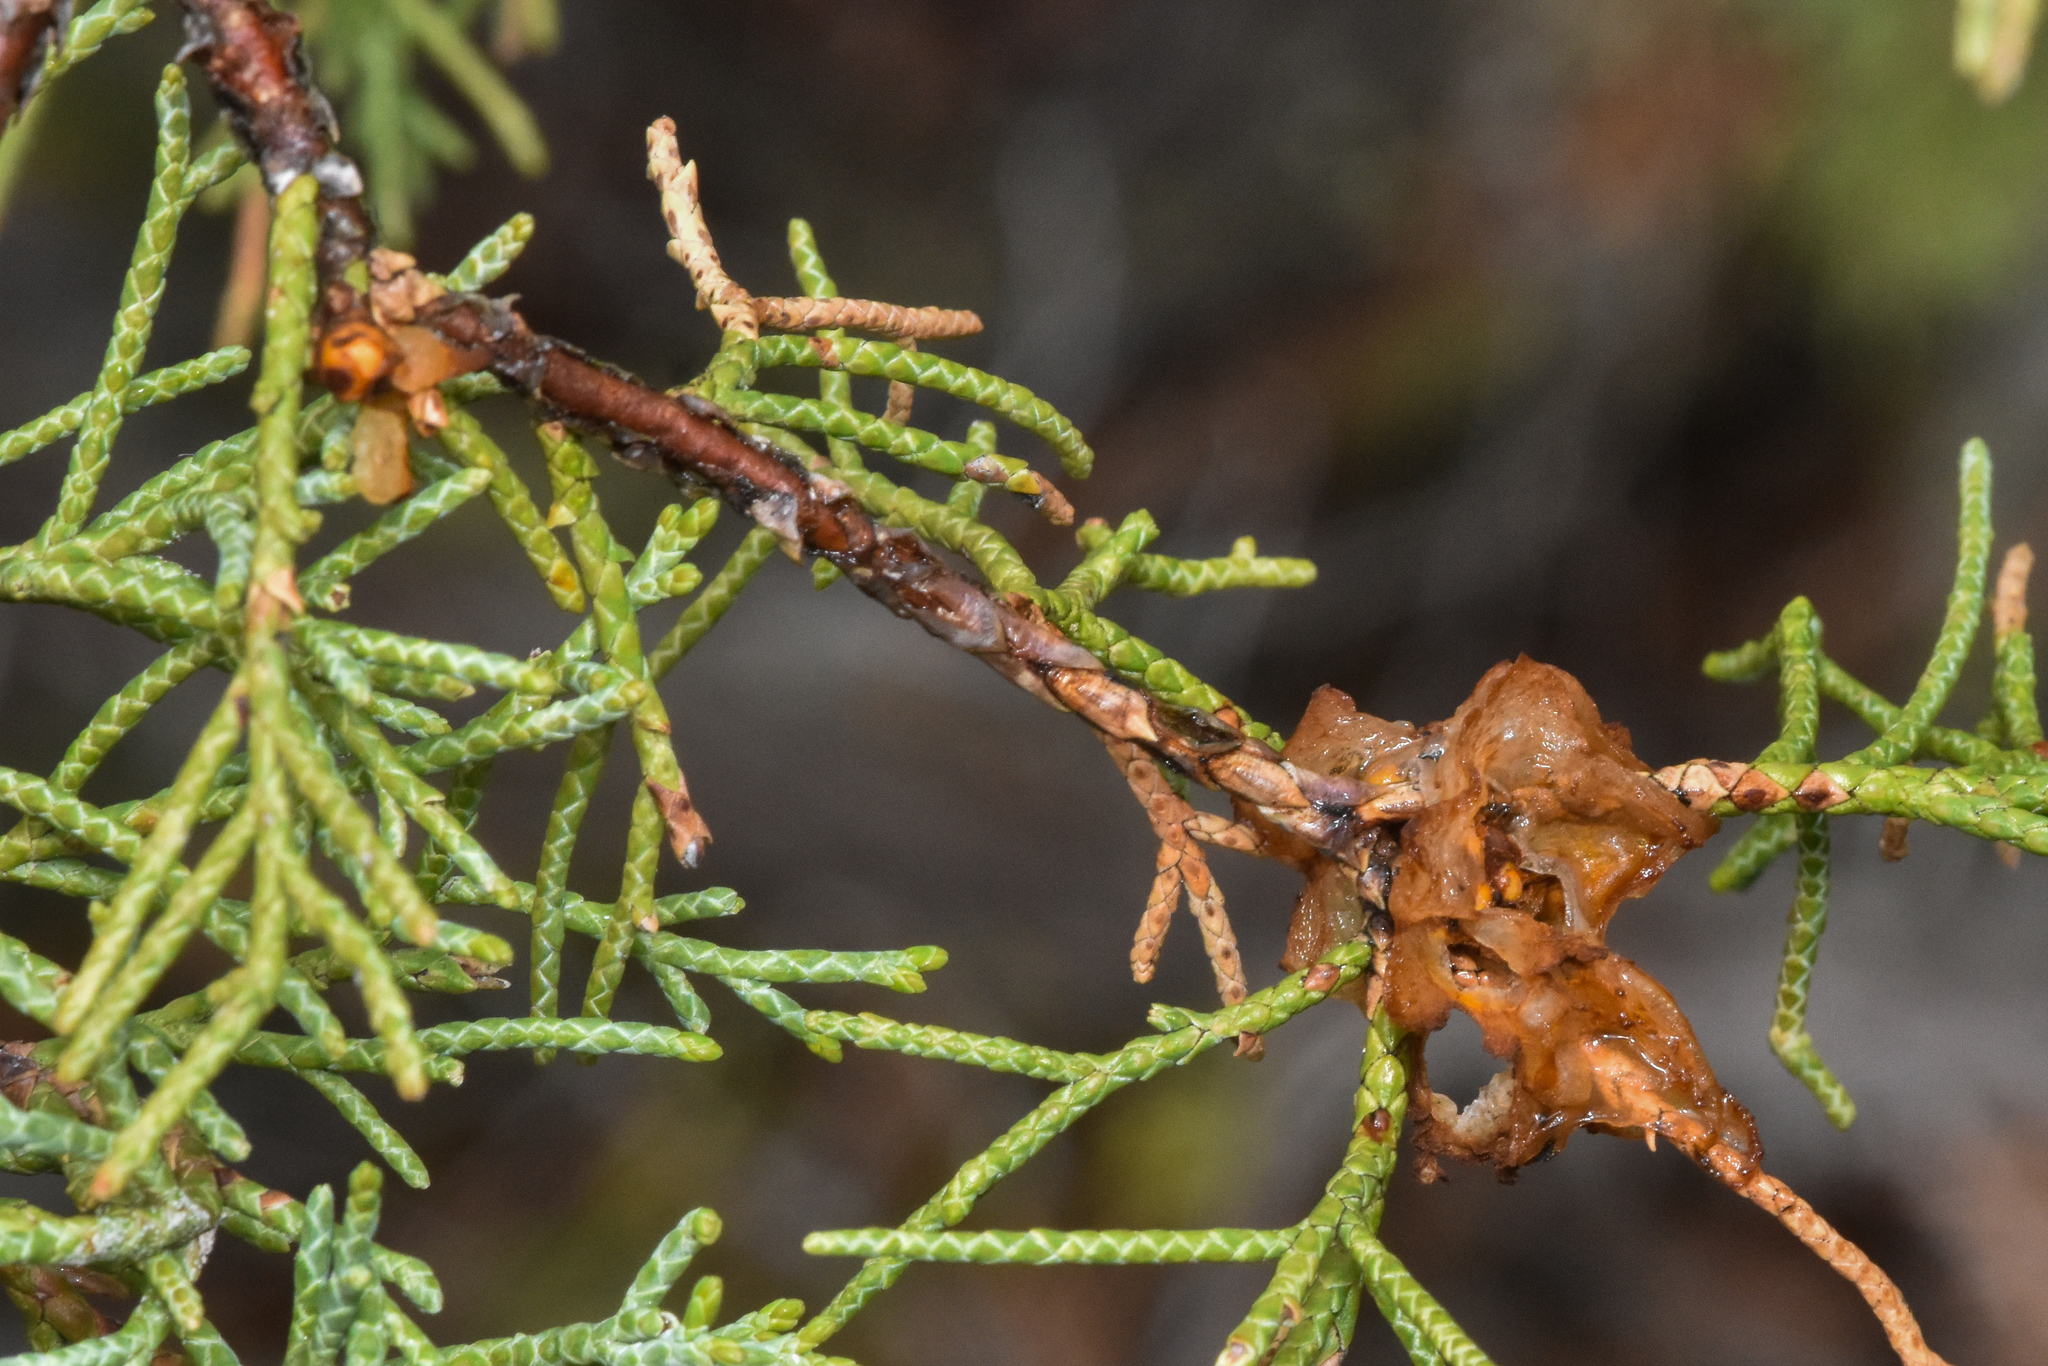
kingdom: Fungi
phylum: Basidiomycota
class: Pucciniomycetes
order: Pucciniales
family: Gymnosporangiaceae
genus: Gymnosporangium
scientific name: Gymnosporangium juniperi-virginianae
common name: Juniper-apple rust
